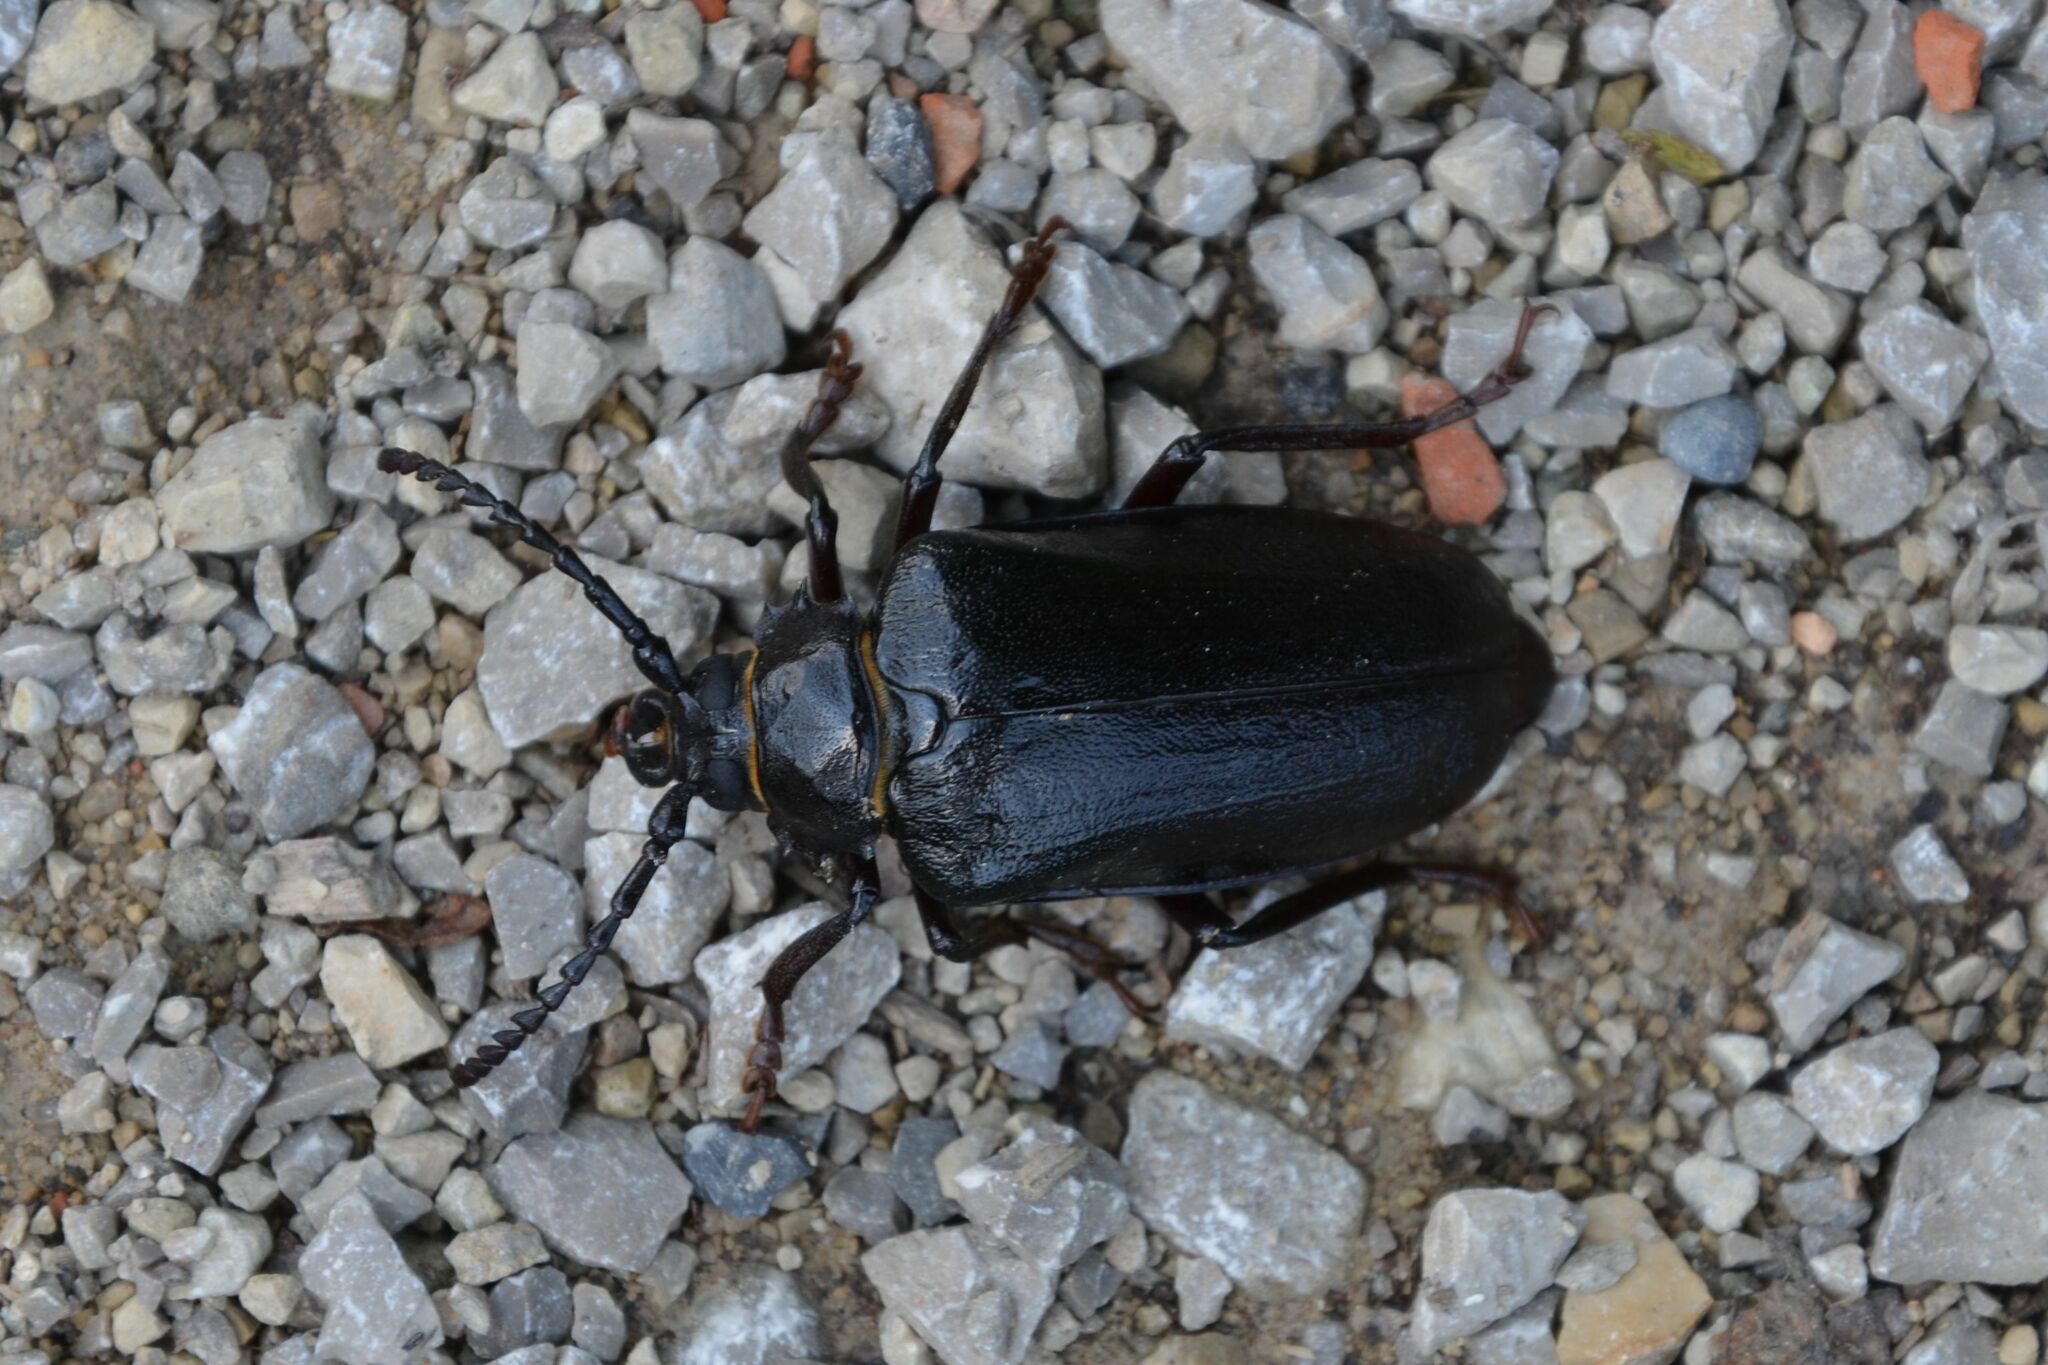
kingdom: Animalia
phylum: Arthropoda
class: Insecta
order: Coleoptera
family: Cerambycidae
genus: Prionus
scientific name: Prionus coriarius
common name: Tanner beetle
